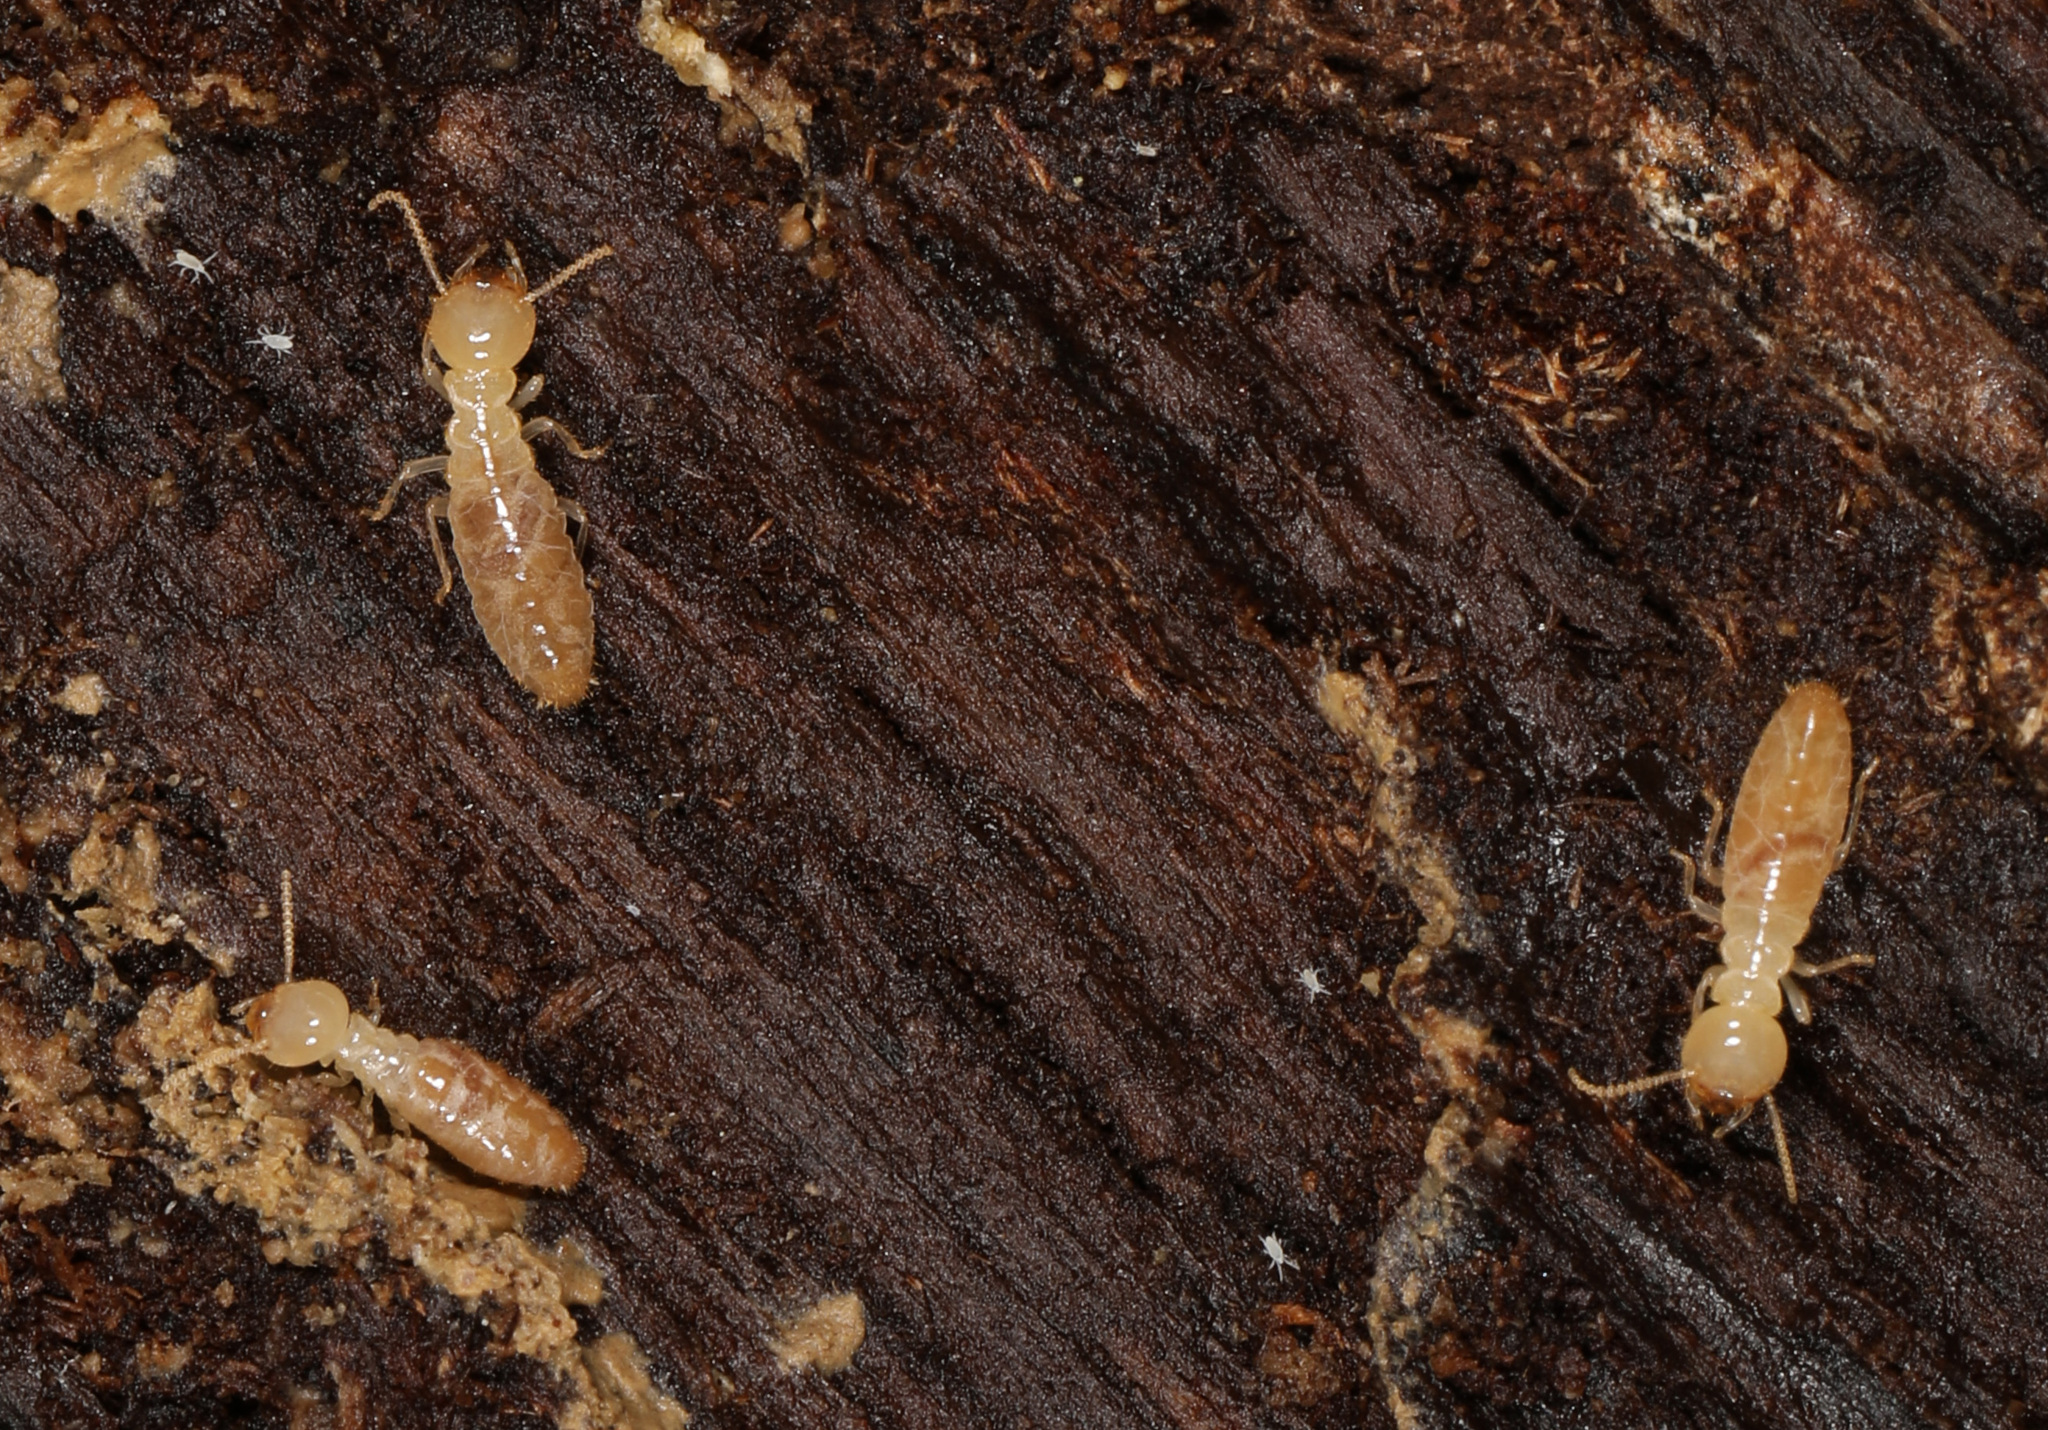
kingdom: Animalia
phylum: Arthropoda
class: Insecta
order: Blattodea
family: Rhinotermitidae
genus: Reticulitermes
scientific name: Reticulitermes flavipes
